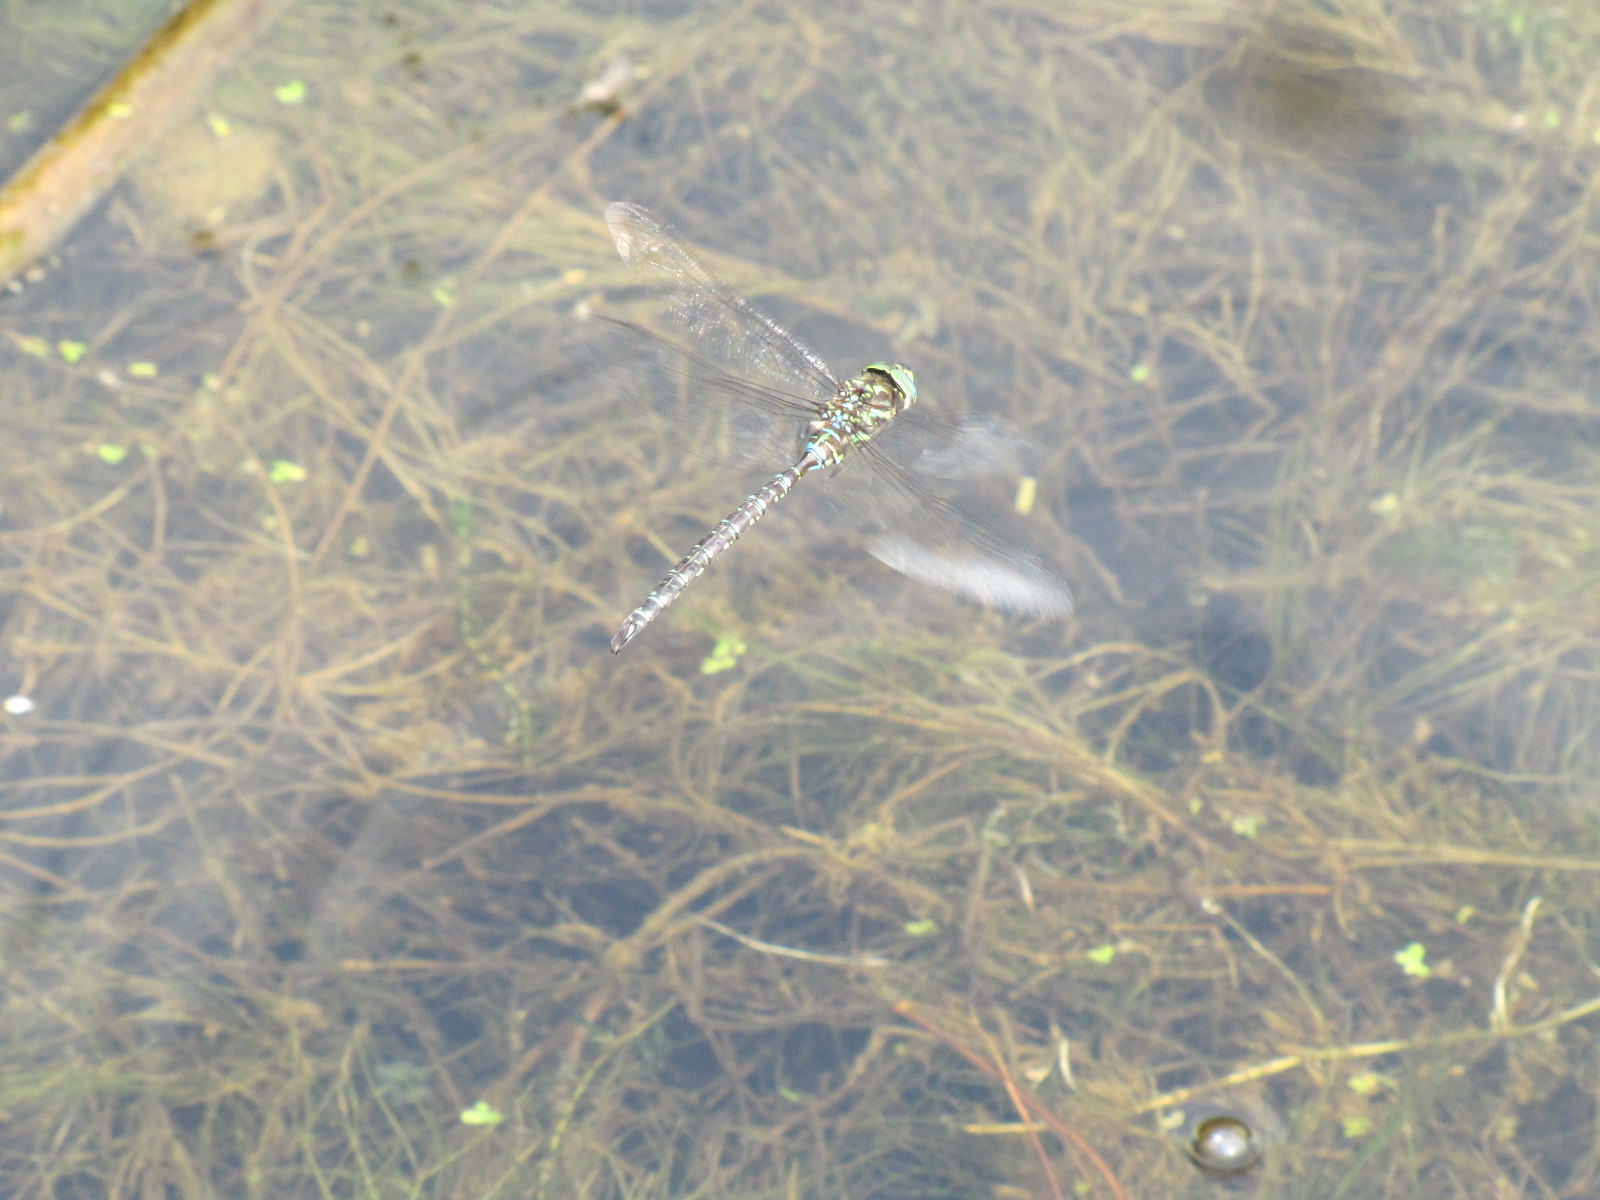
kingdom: Animalia
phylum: Arthropoda
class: Insecta
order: Odonata
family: Aeshnidae
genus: Aeshna
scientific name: Aeshna umbrosa
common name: Shadow darner
